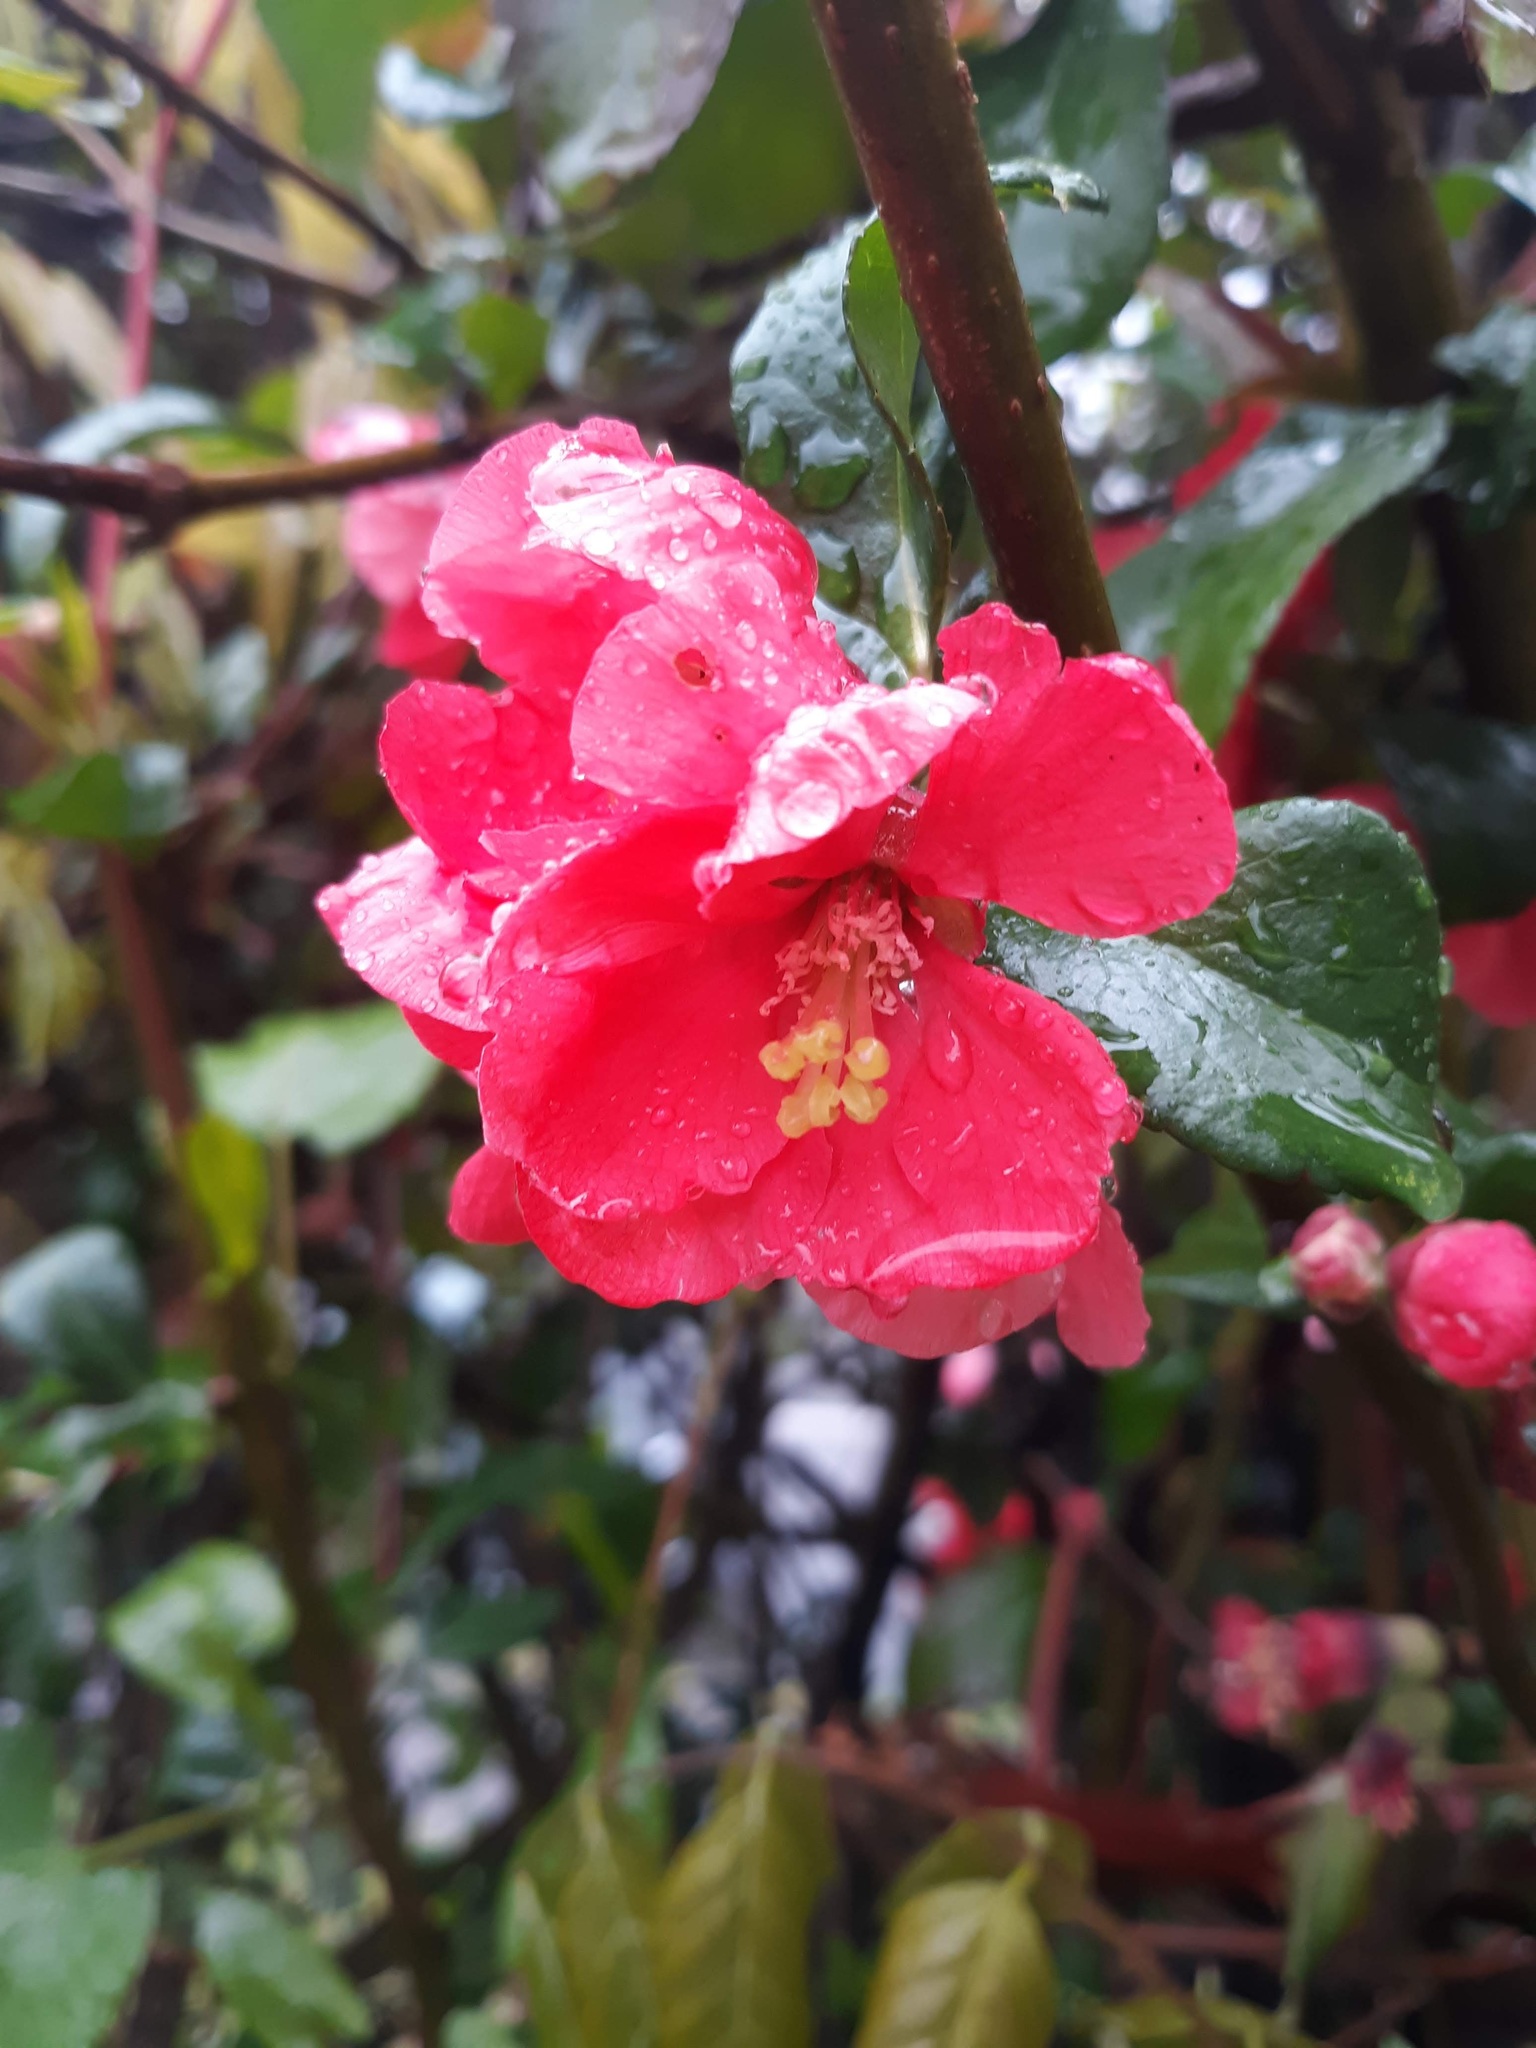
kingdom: Plantae
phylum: Tracheophyta
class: Magnoliopsida
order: Rosales
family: Rosaceae
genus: Chaenomeles
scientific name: Chaenomeles speciosa
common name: Japanese quince
